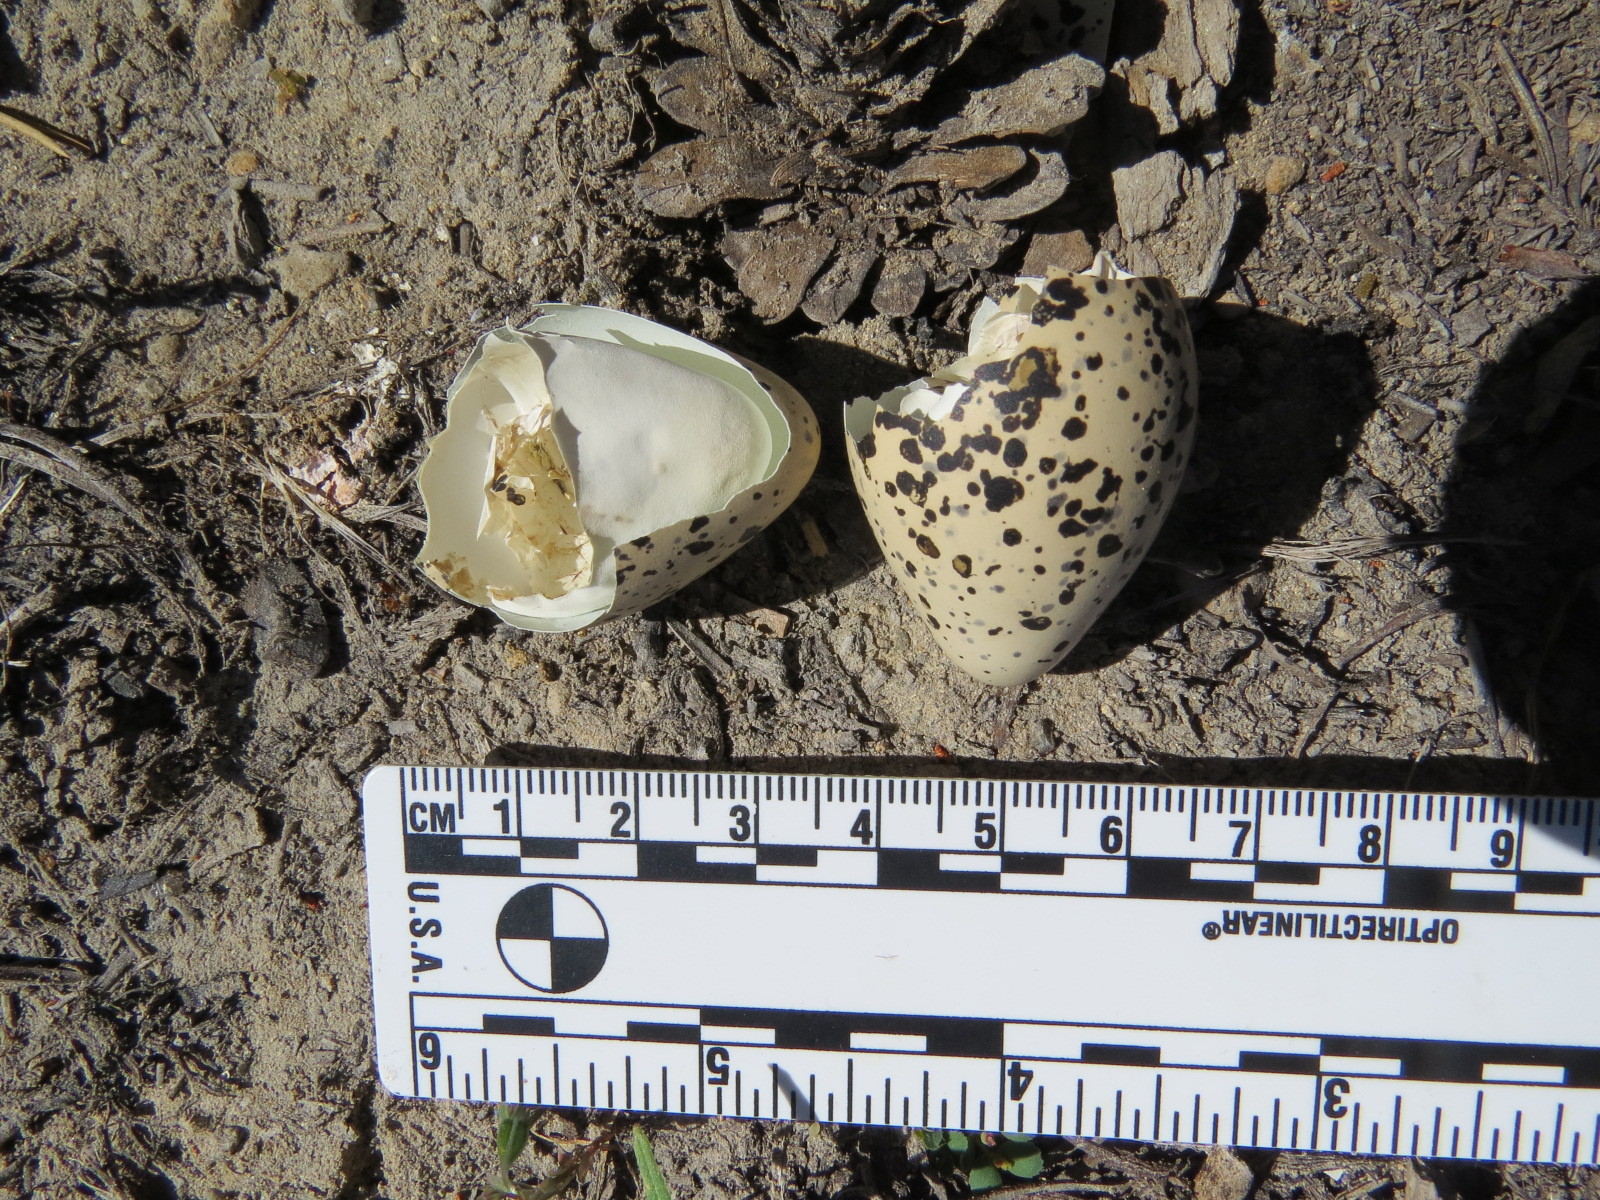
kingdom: Animalia
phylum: Chordata
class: Aves
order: Charadriiformes
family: Charadriidae
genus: Charadrius
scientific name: Charadrius vociferus
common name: Killdeer
